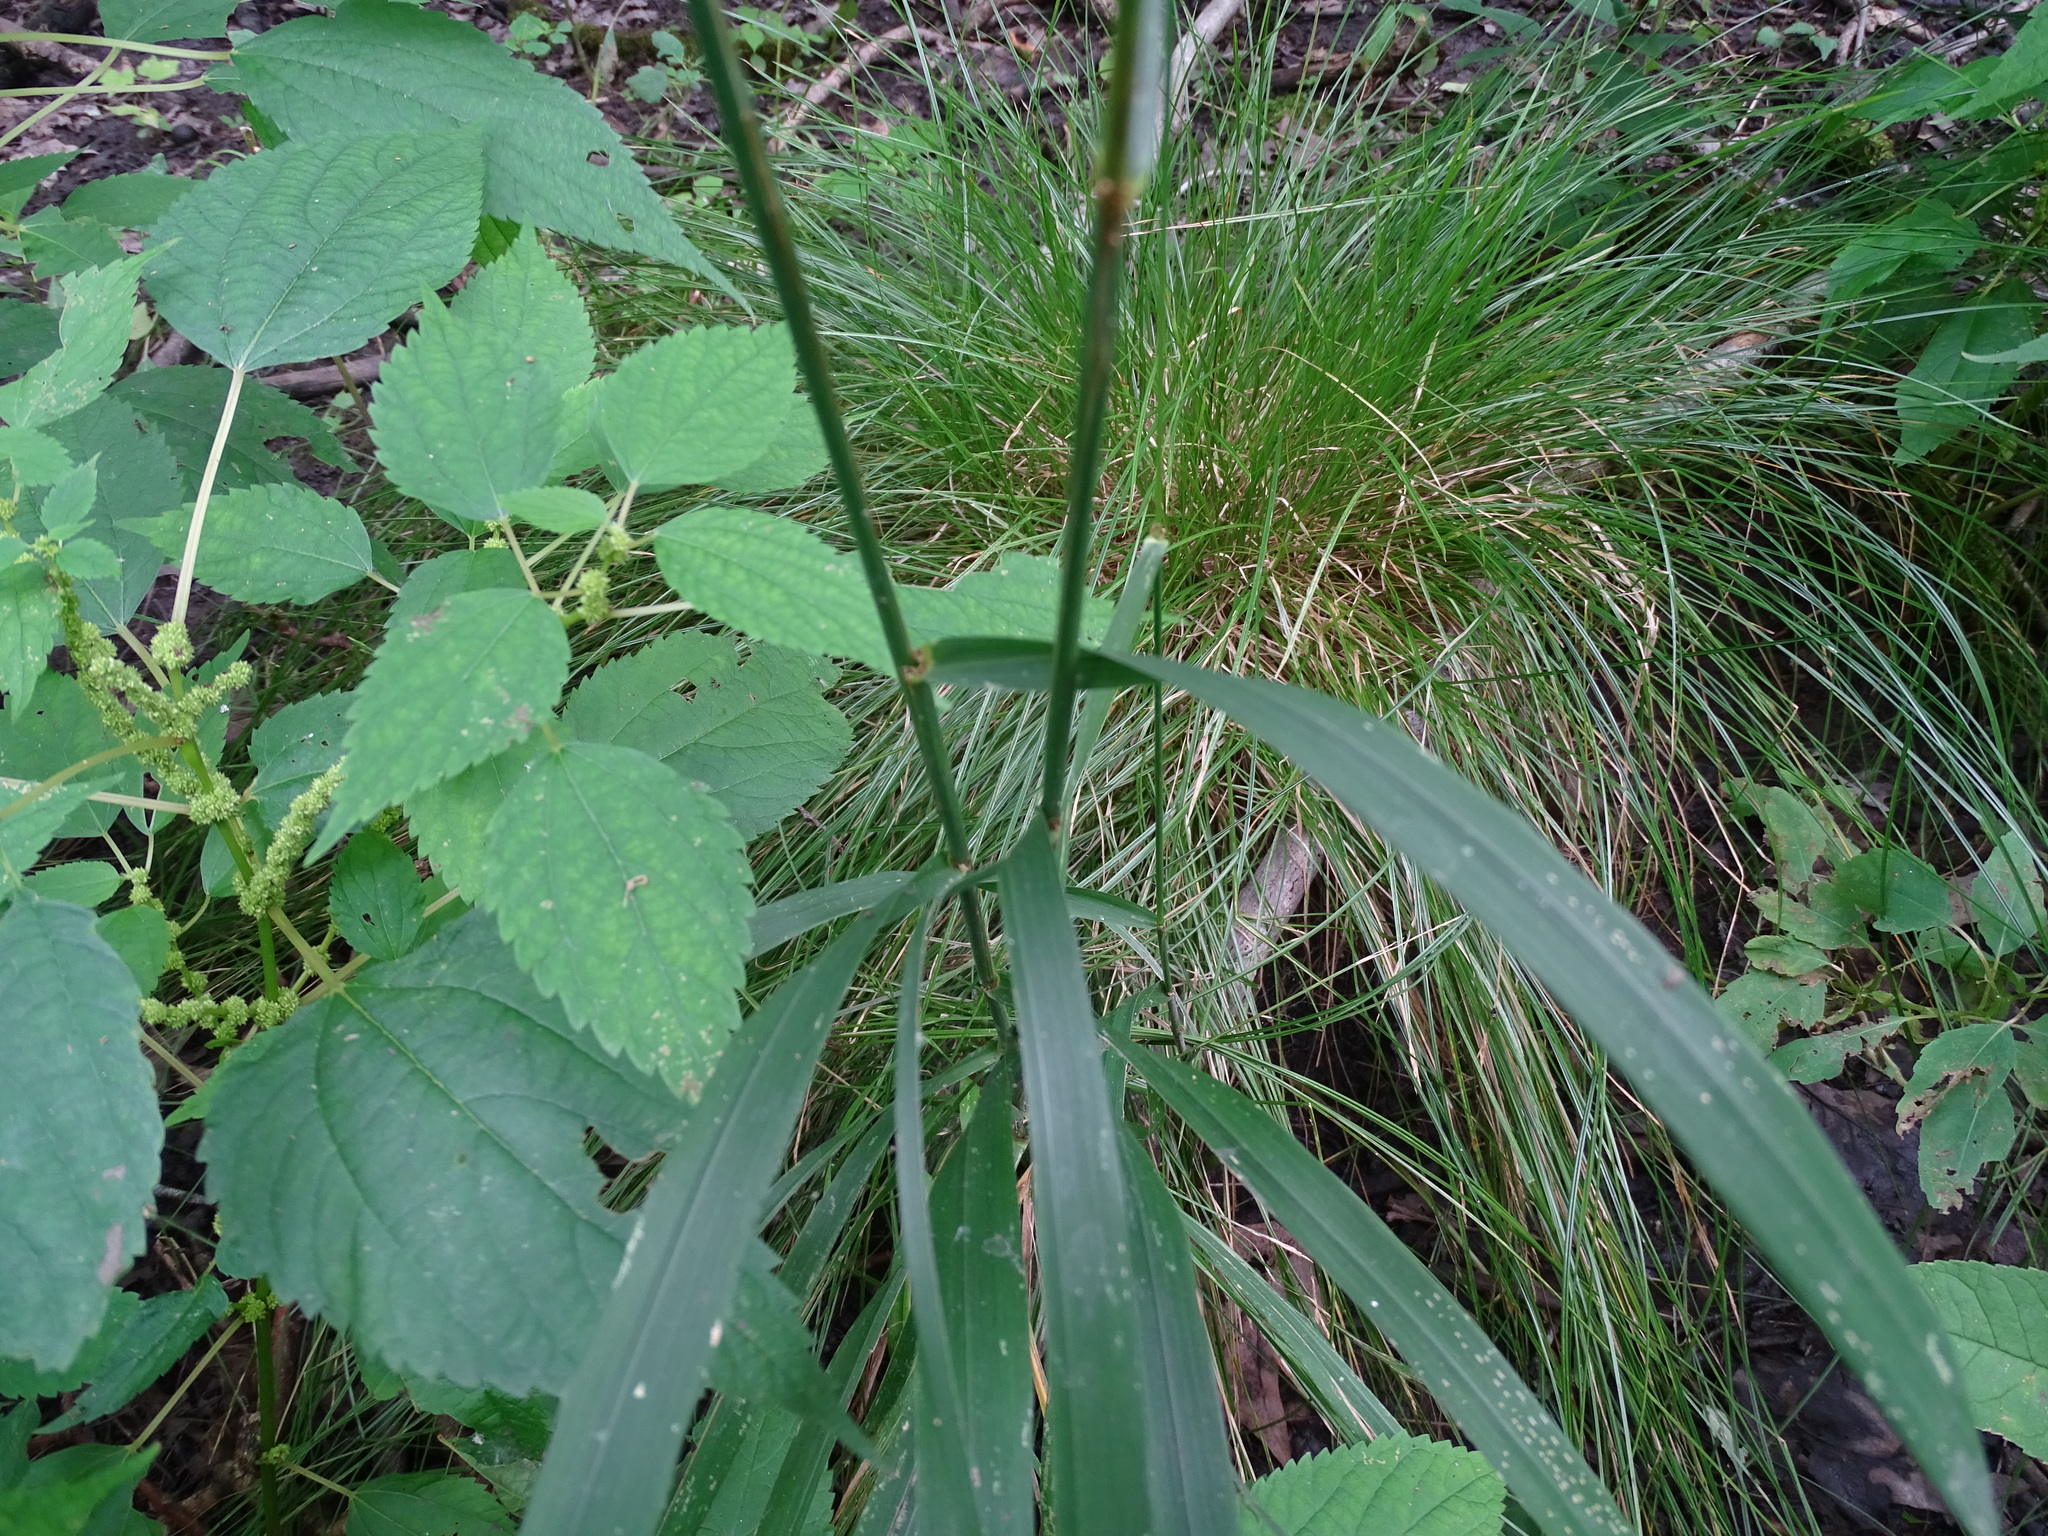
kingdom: Plantae
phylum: Tracheophyta
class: Liliopsida
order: Poales
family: Poaceae
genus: Cinna
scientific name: Cinna arundinacea
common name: Stout woodreed
